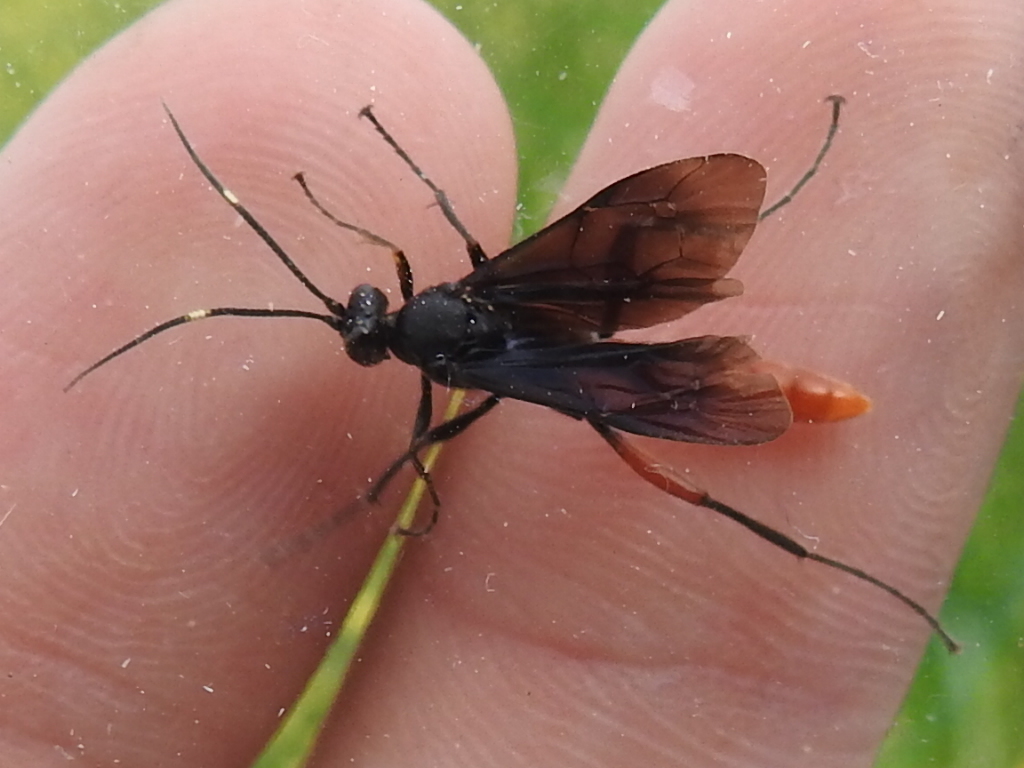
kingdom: Animalia
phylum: Arthropoda
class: Insecta
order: Hymenoptera
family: Ichneumonidae
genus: Limonethe
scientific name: Limonethe maurator
